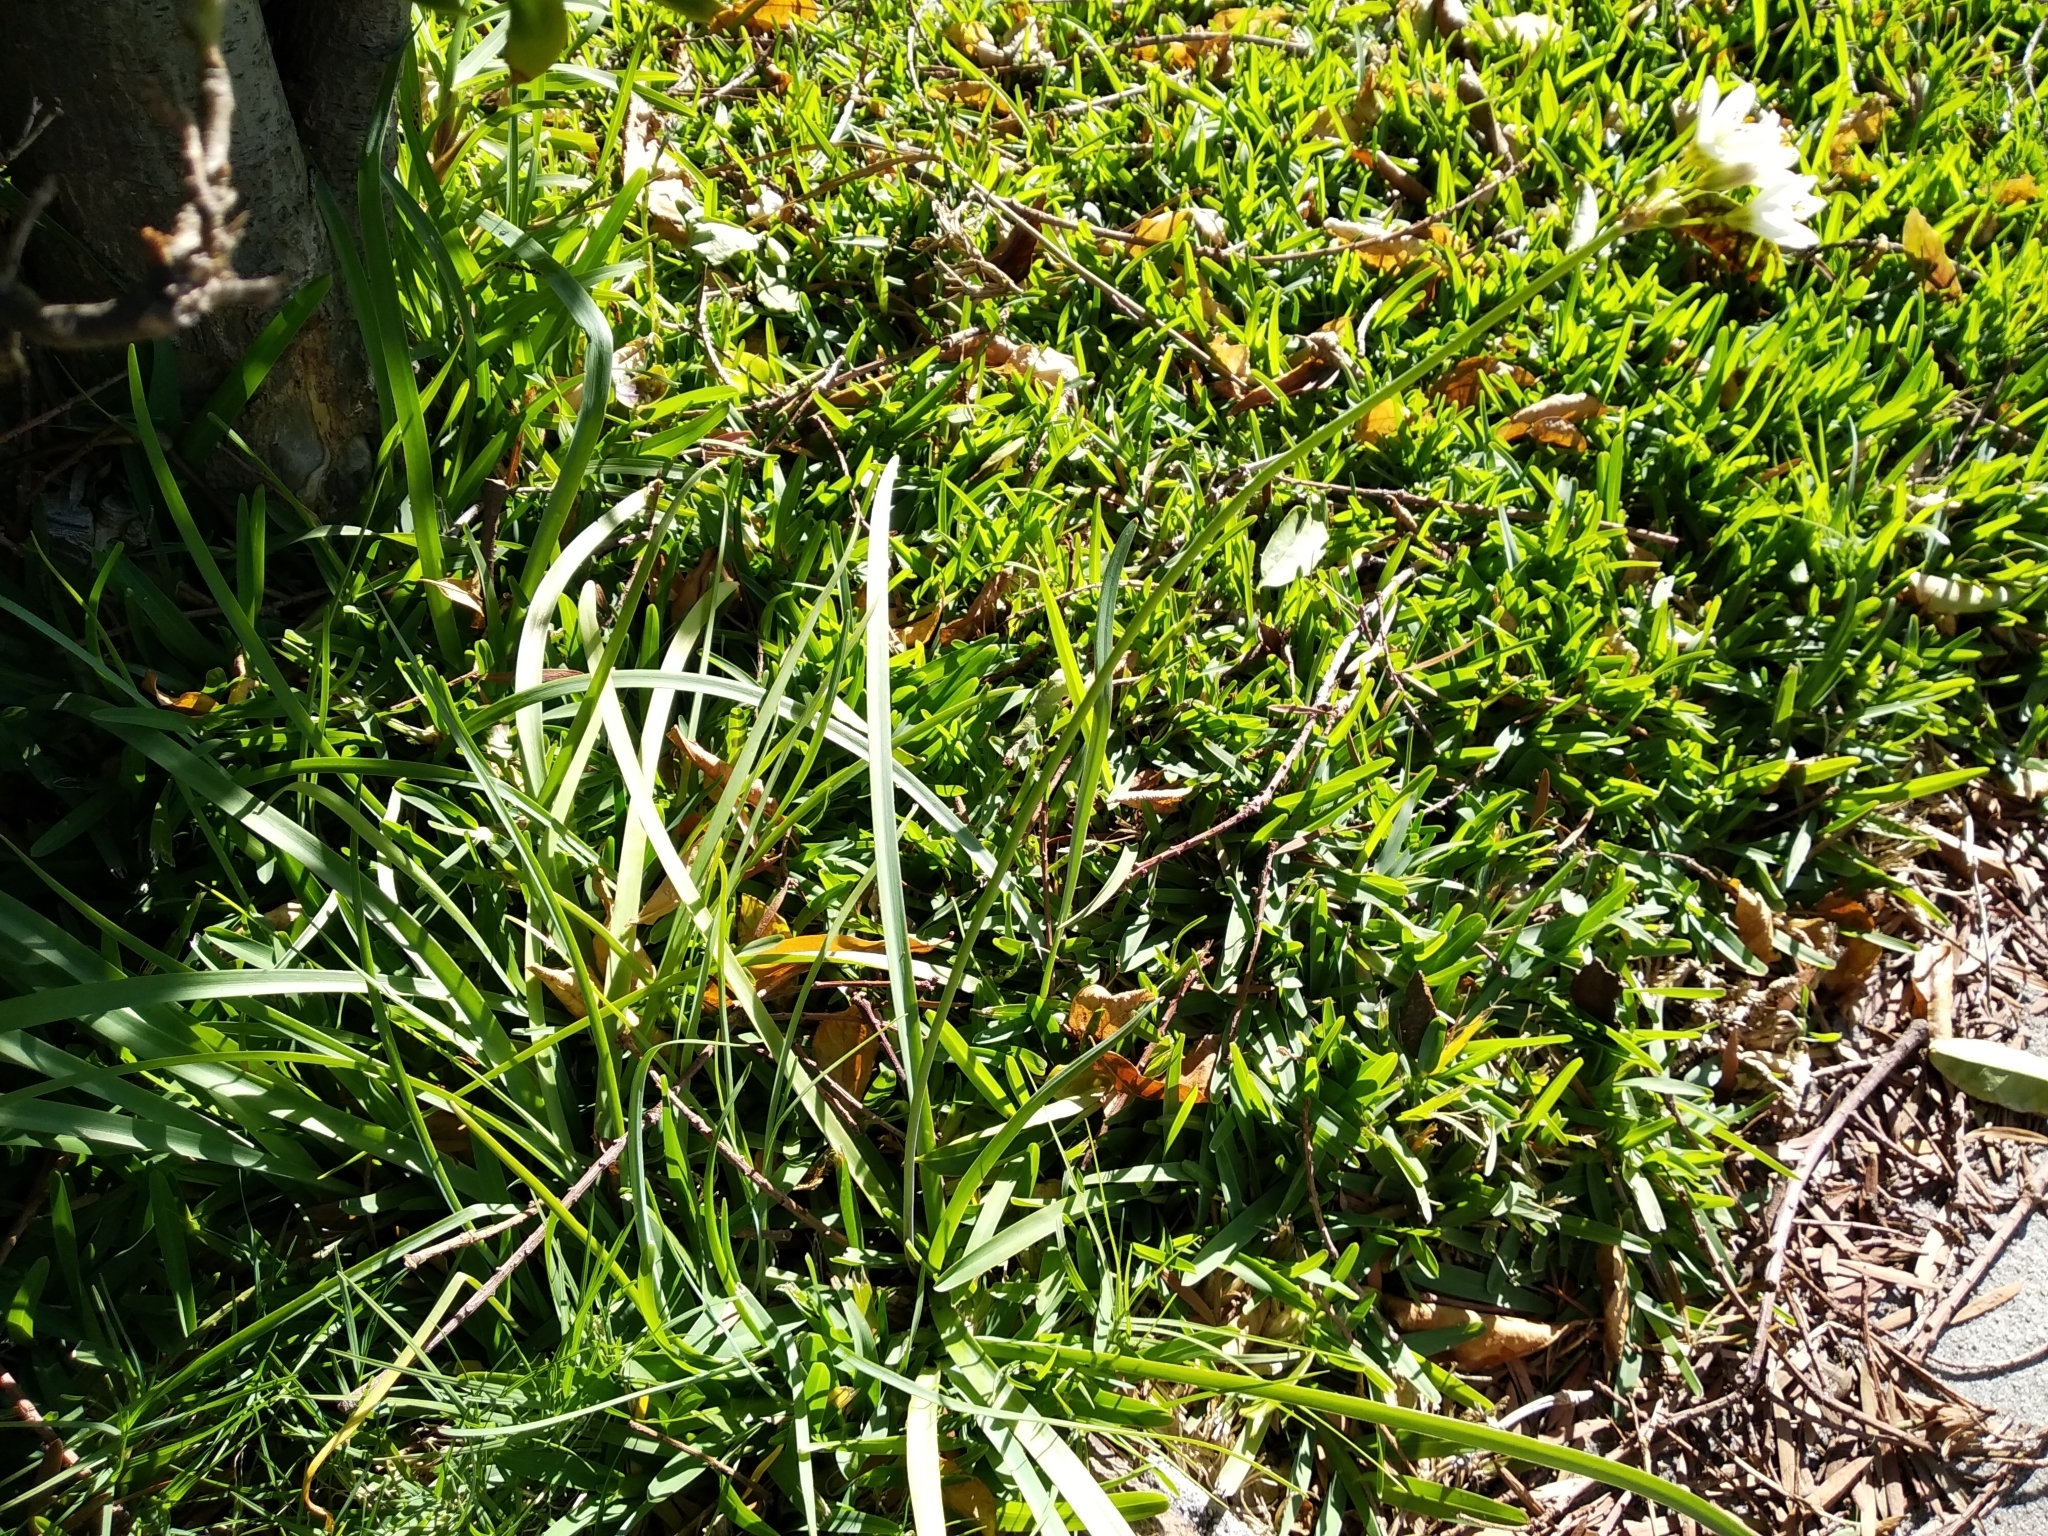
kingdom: Plantae
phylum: Tracheophyta
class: Liliopsida
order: Asparagales
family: Amaryllidaceae
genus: Nothoscordum
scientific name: Nothoscordum gracile
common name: Slender false garlic
